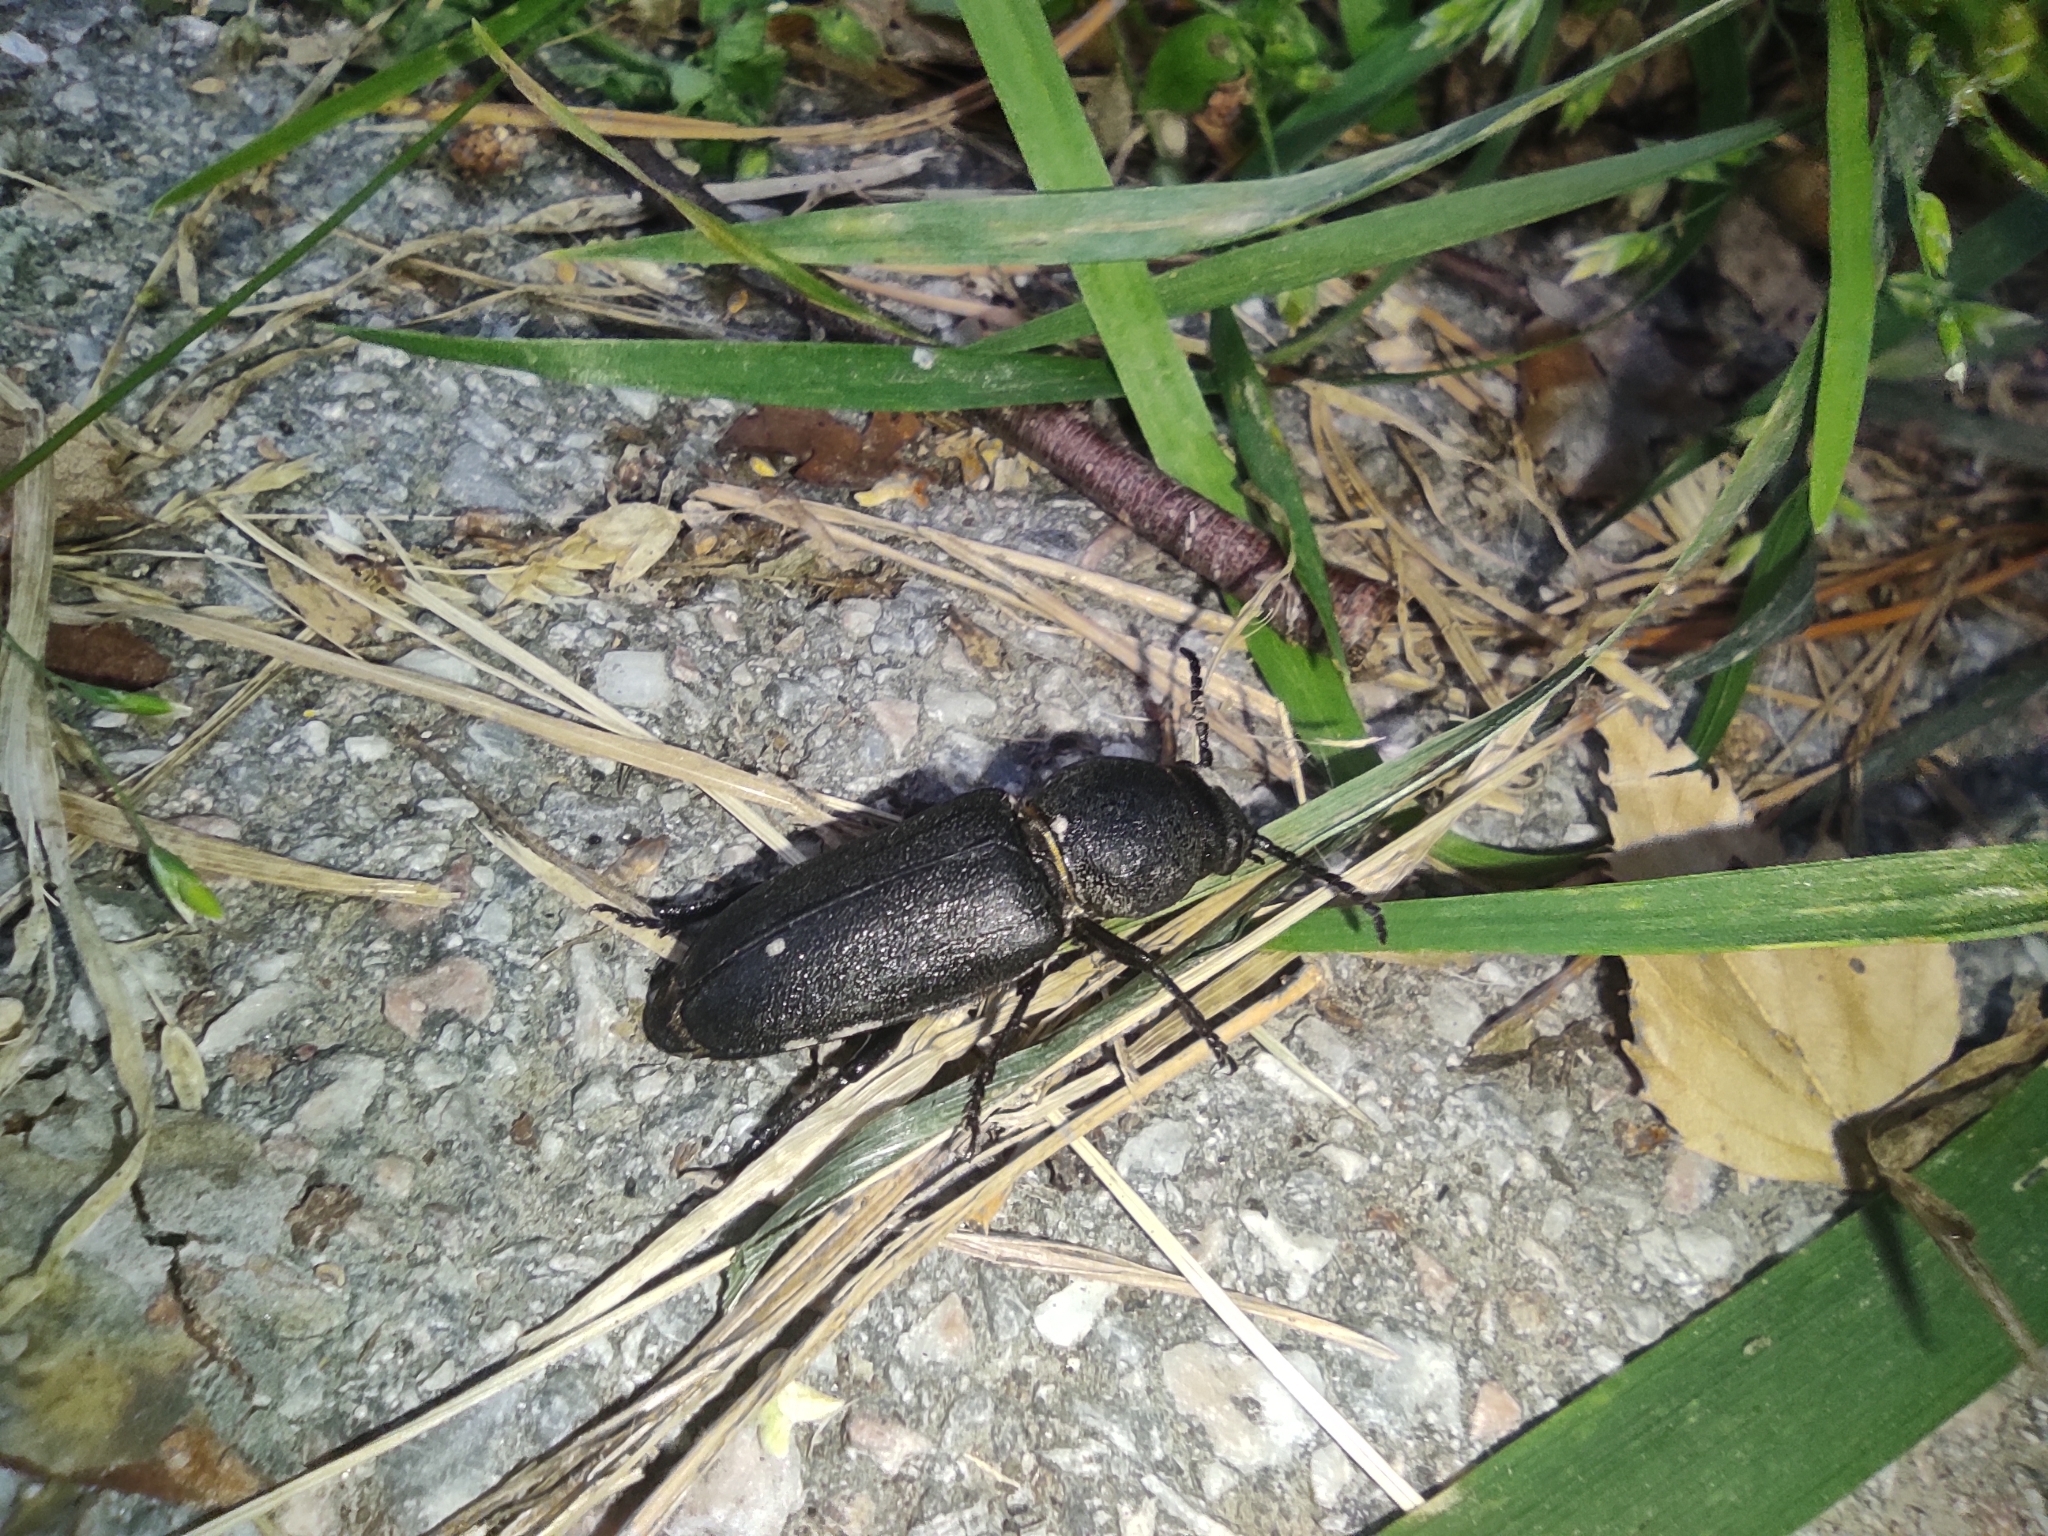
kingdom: Animalia
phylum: Arthropoda
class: Insecta
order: Coleoptera
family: Cerambycidae
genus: Spondylis
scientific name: Spondylis buprestoides
